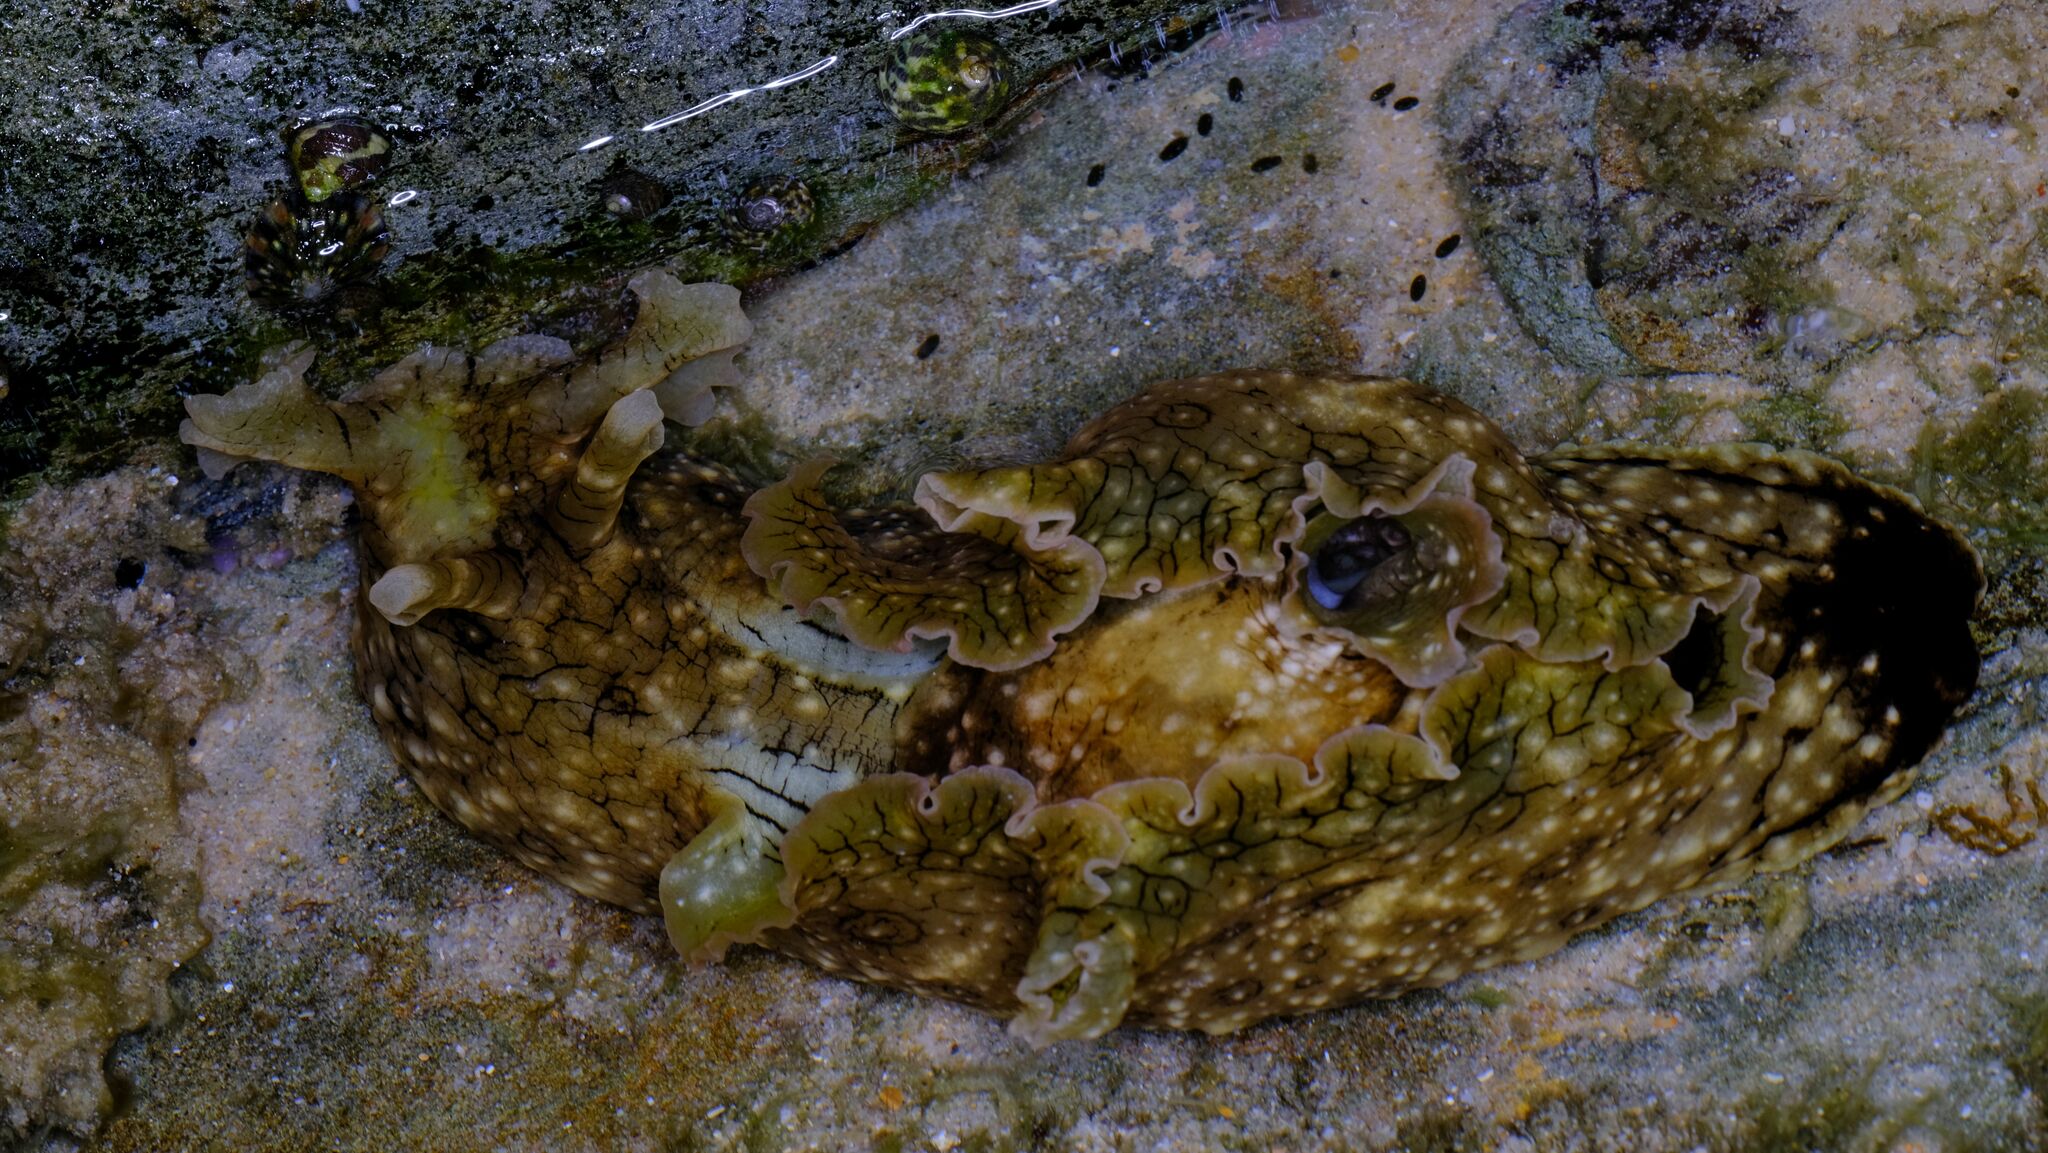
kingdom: Animalia
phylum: Mollusca
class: Gastropoda
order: Aplysiida
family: Aplysiidae
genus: Aplysia
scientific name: Aplysia argus
